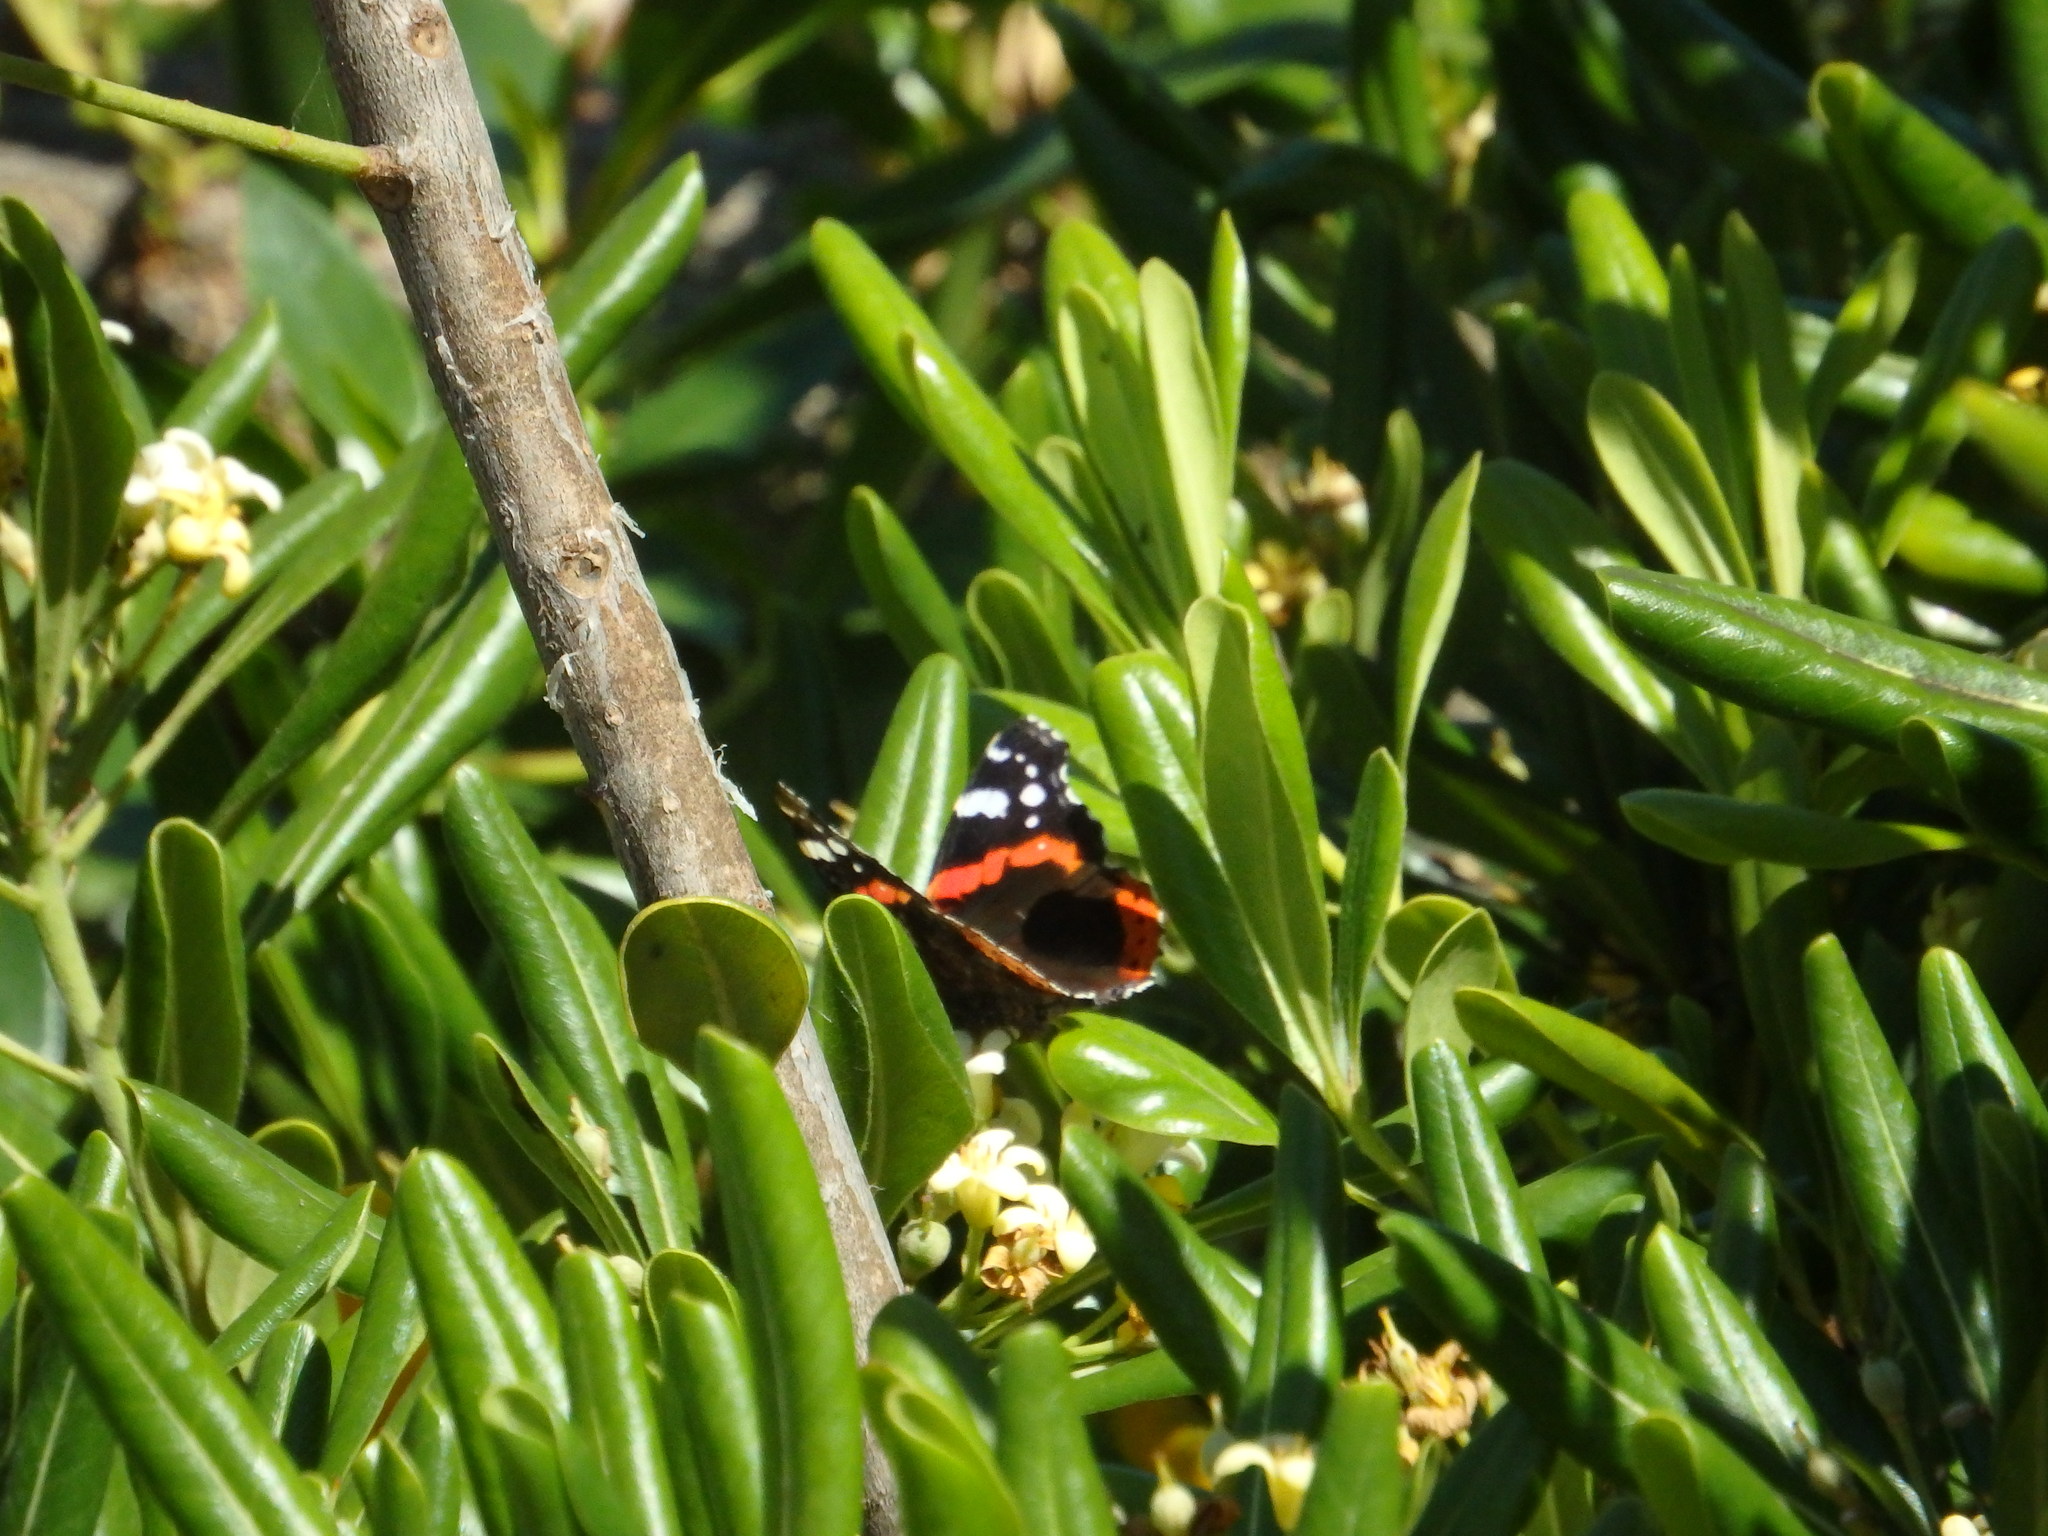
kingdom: Animalia
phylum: Arthropoda
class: Insecta
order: Lepidoptera
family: Nymphalidae
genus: Vanessa
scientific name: Vanessa atalanta
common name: Red admiral
